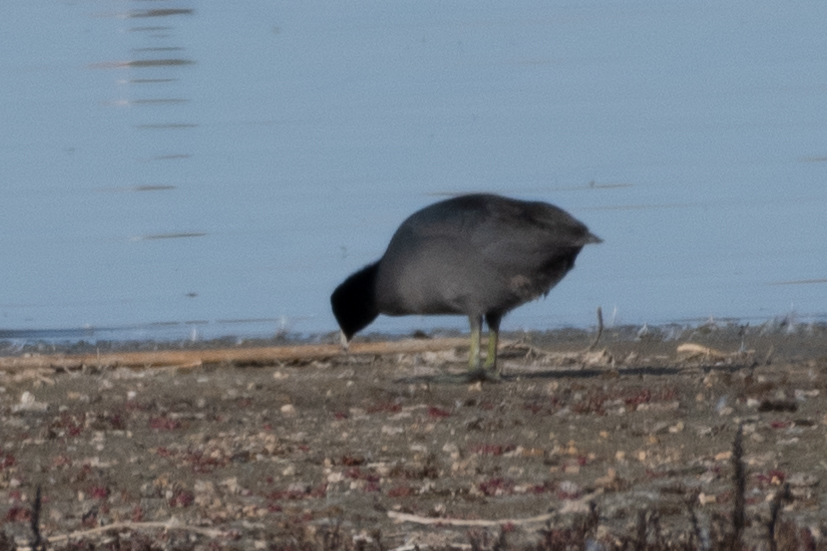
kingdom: Animalia
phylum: Chordata
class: Aves
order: Gruiformes
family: Rallidae
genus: Fulica
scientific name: Fulica americana
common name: American coot
